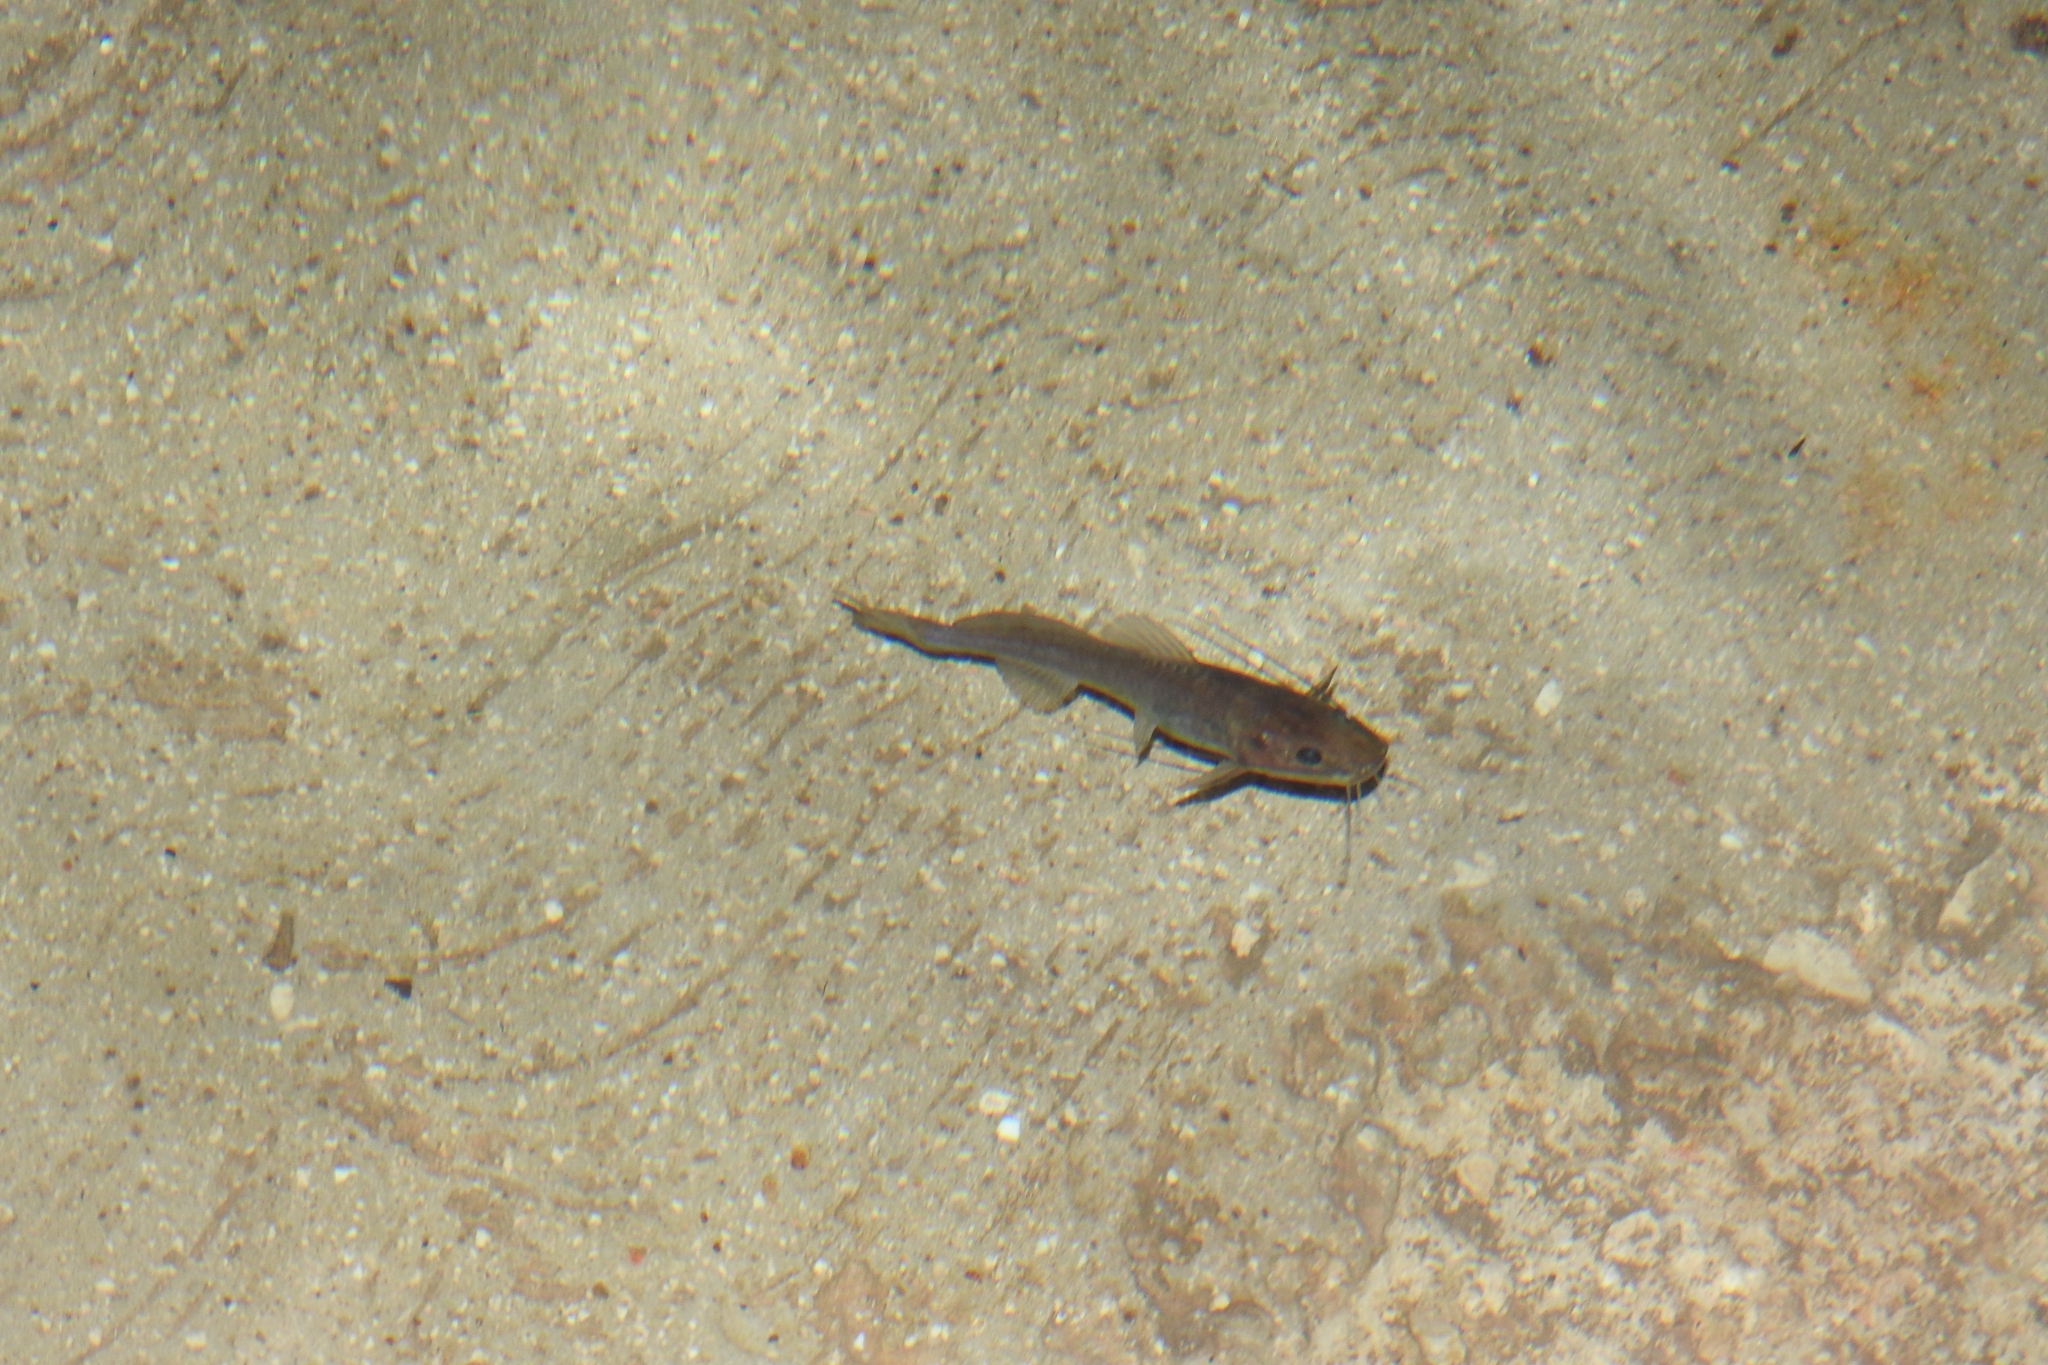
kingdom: Animalia
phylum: Chordata
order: Siluriformes
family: Heptapteridae
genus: Rhamdia
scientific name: Rhamdia guatemalensis
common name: Pale catfish
